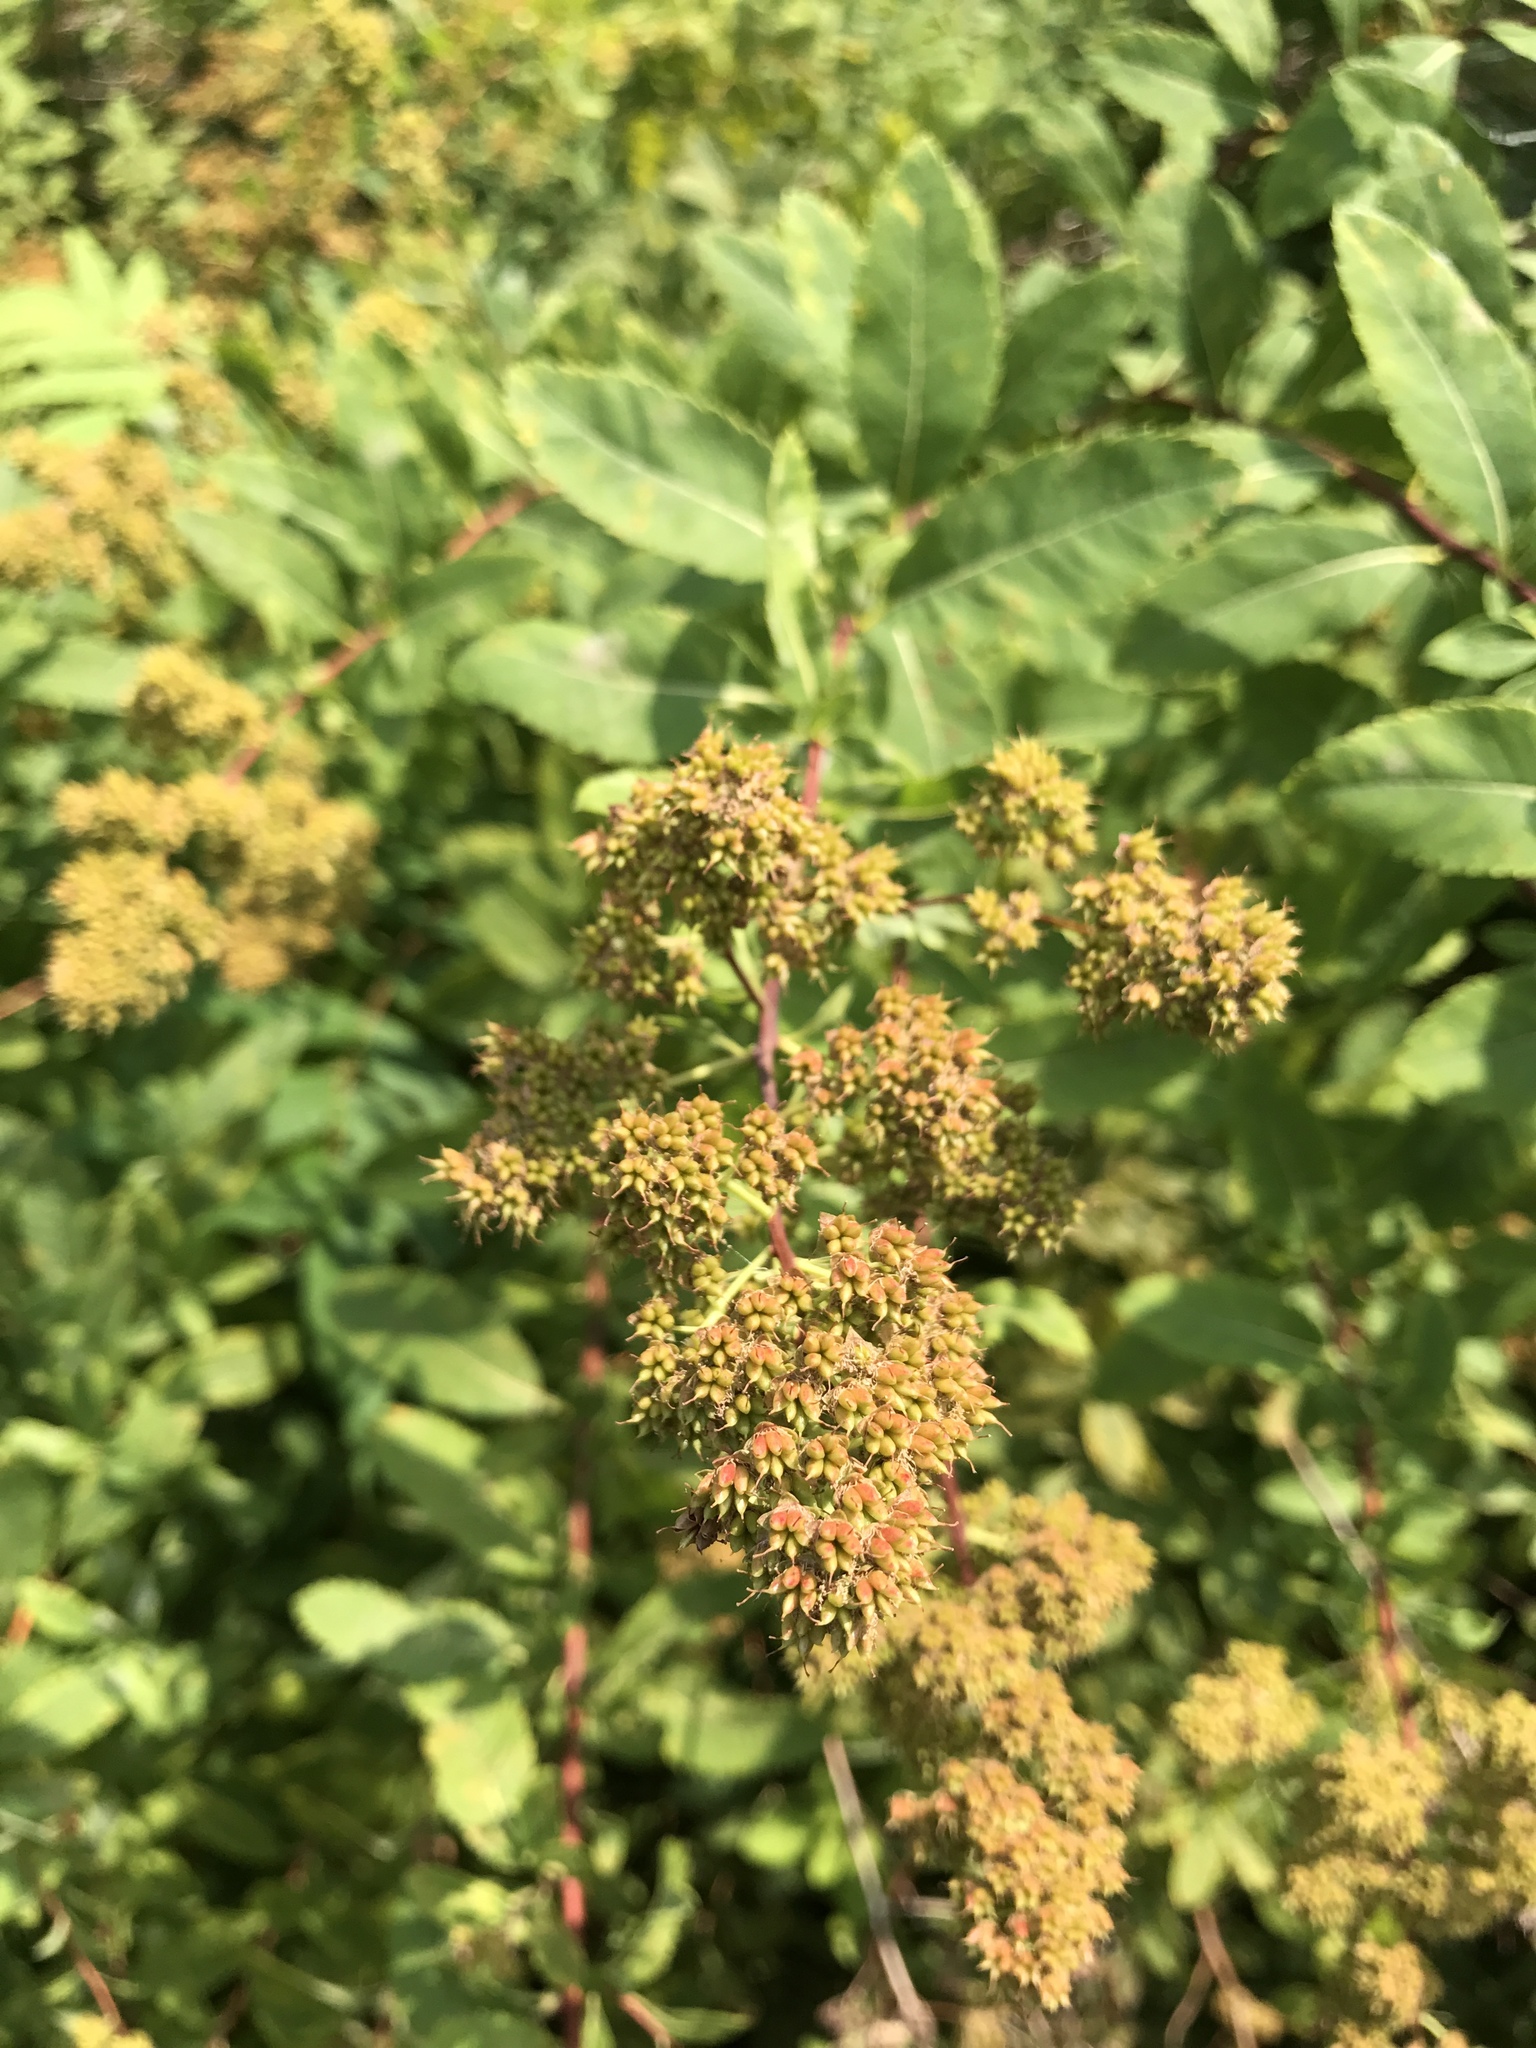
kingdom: Plantae
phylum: Tracheophyta
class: Magnoliopsida
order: Rosales
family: Rosaceae
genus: Spiraea
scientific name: Spiraea alba
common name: Pale bridewort
